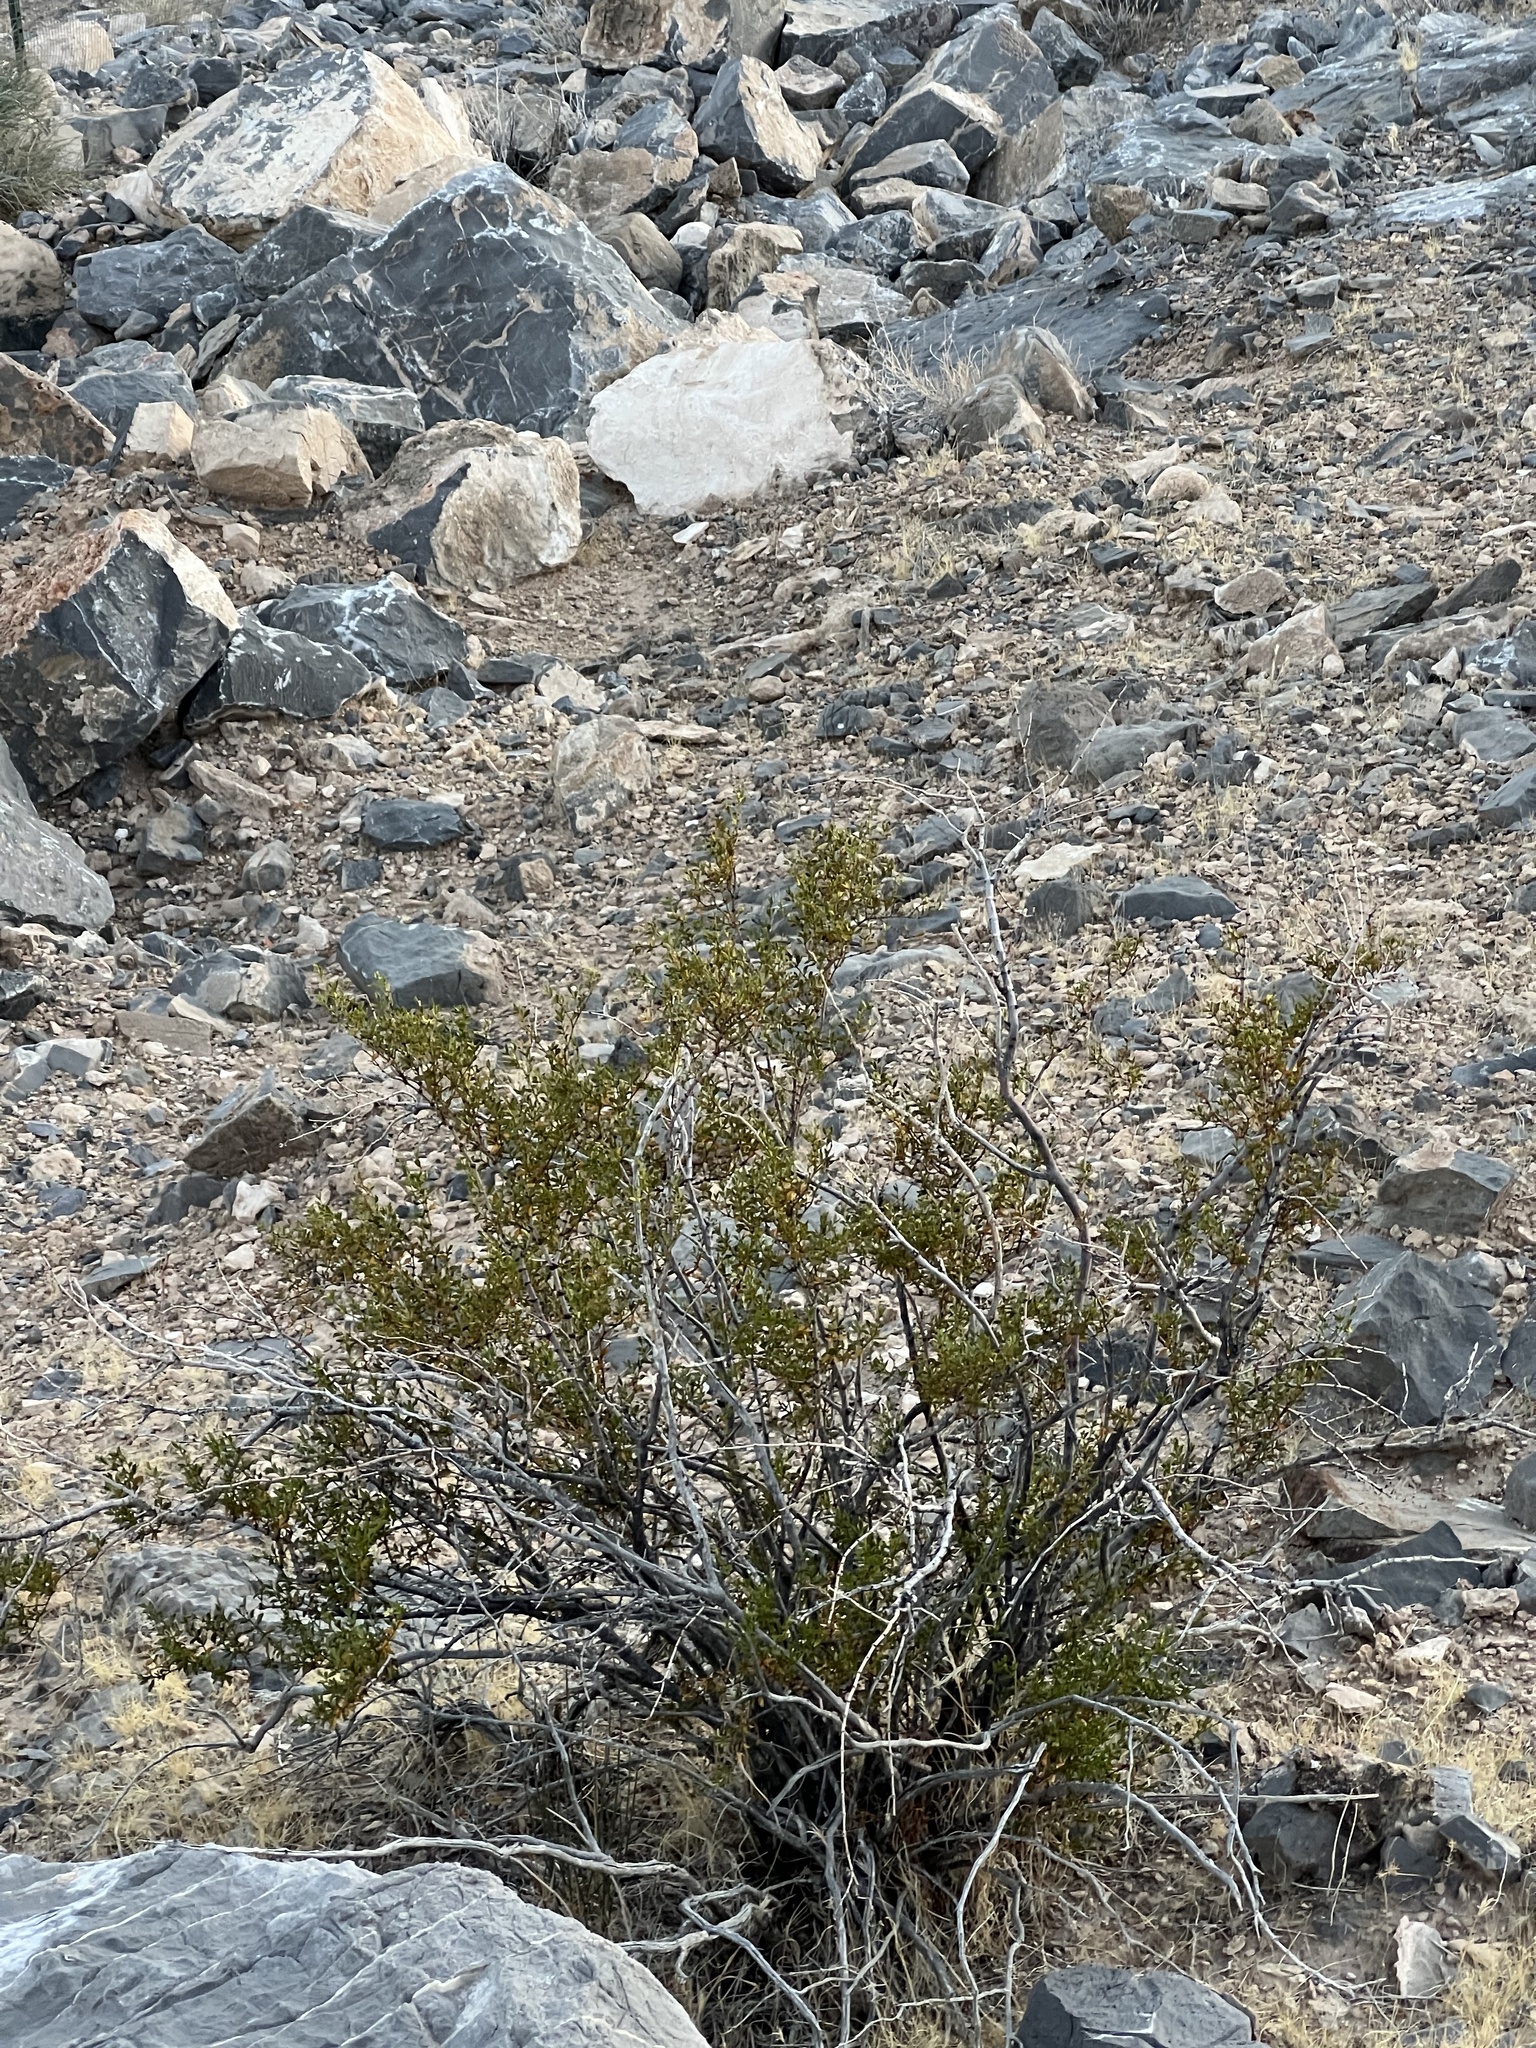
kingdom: Plantae
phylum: Tracheophyta
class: Magnoliopsida
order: Zygophyllales
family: Zygophyllaceae
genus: Larrea
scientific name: Larrea tridentata
